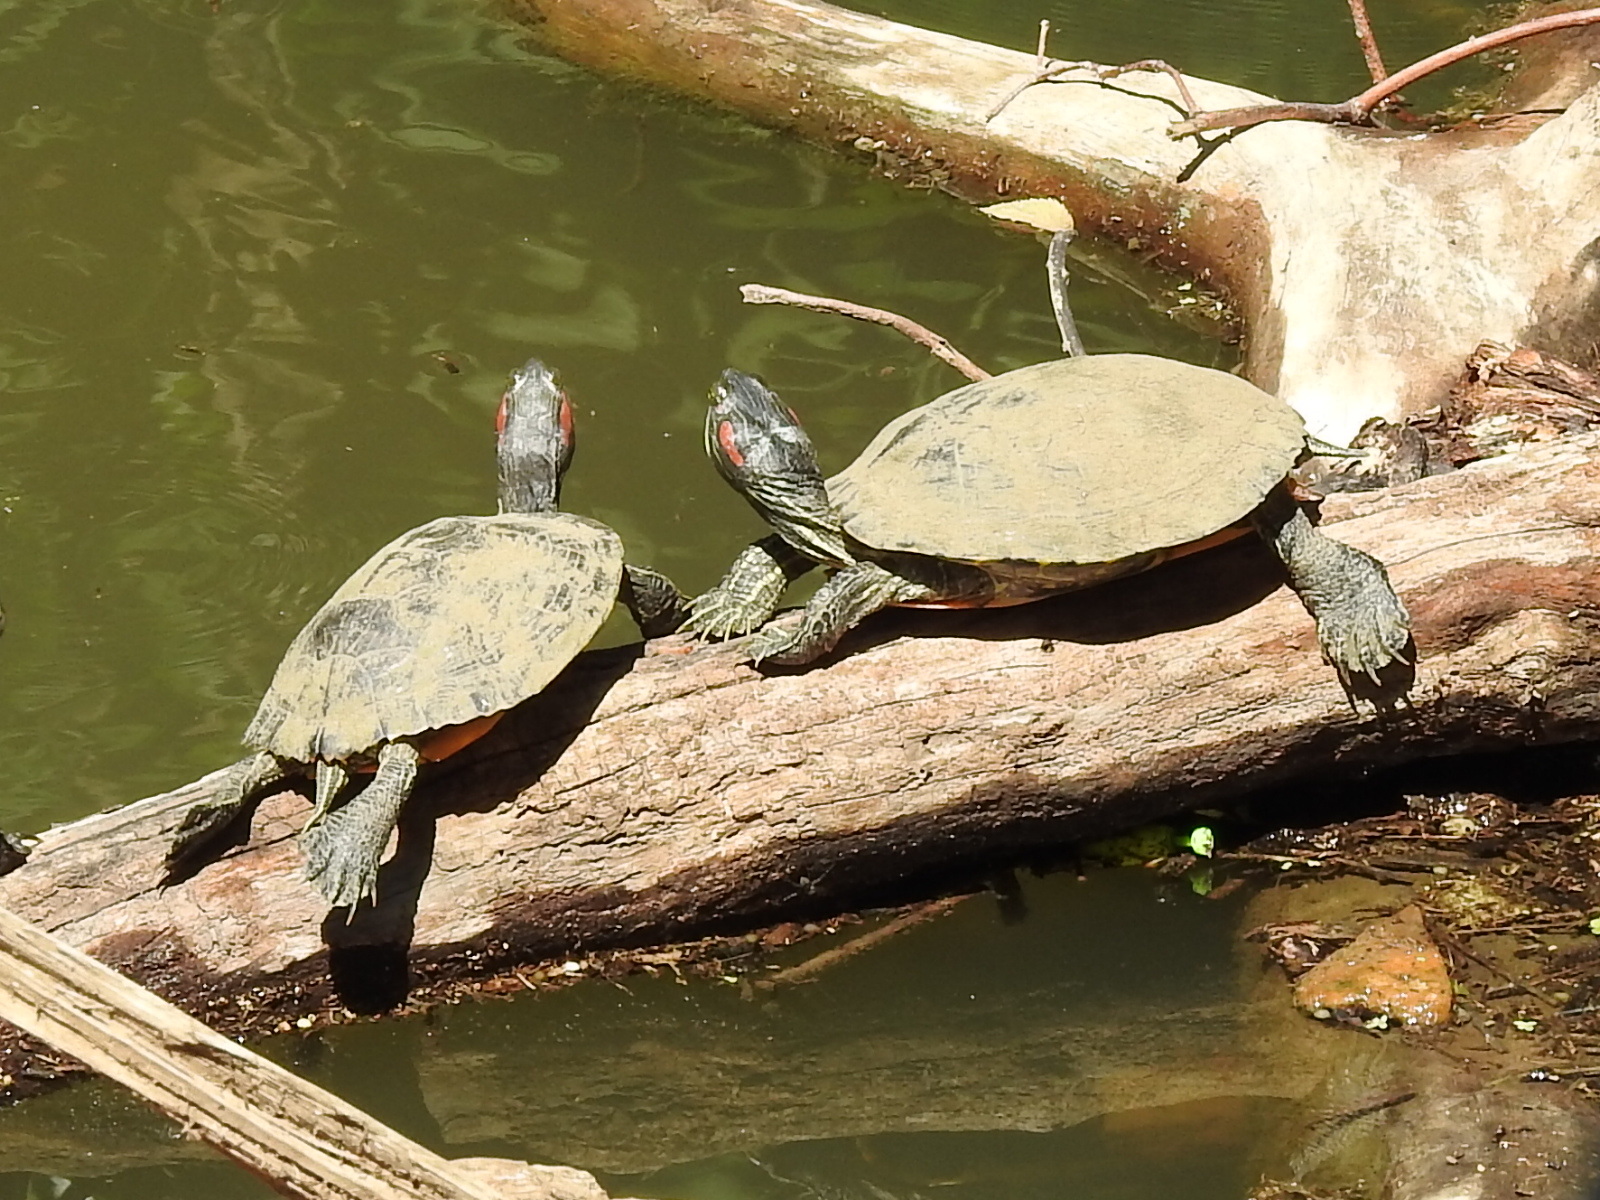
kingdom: Animalia
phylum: Chordata
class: Testudines
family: Emydidae
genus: Trachemys
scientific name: Trachemys scripta
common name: Slider
